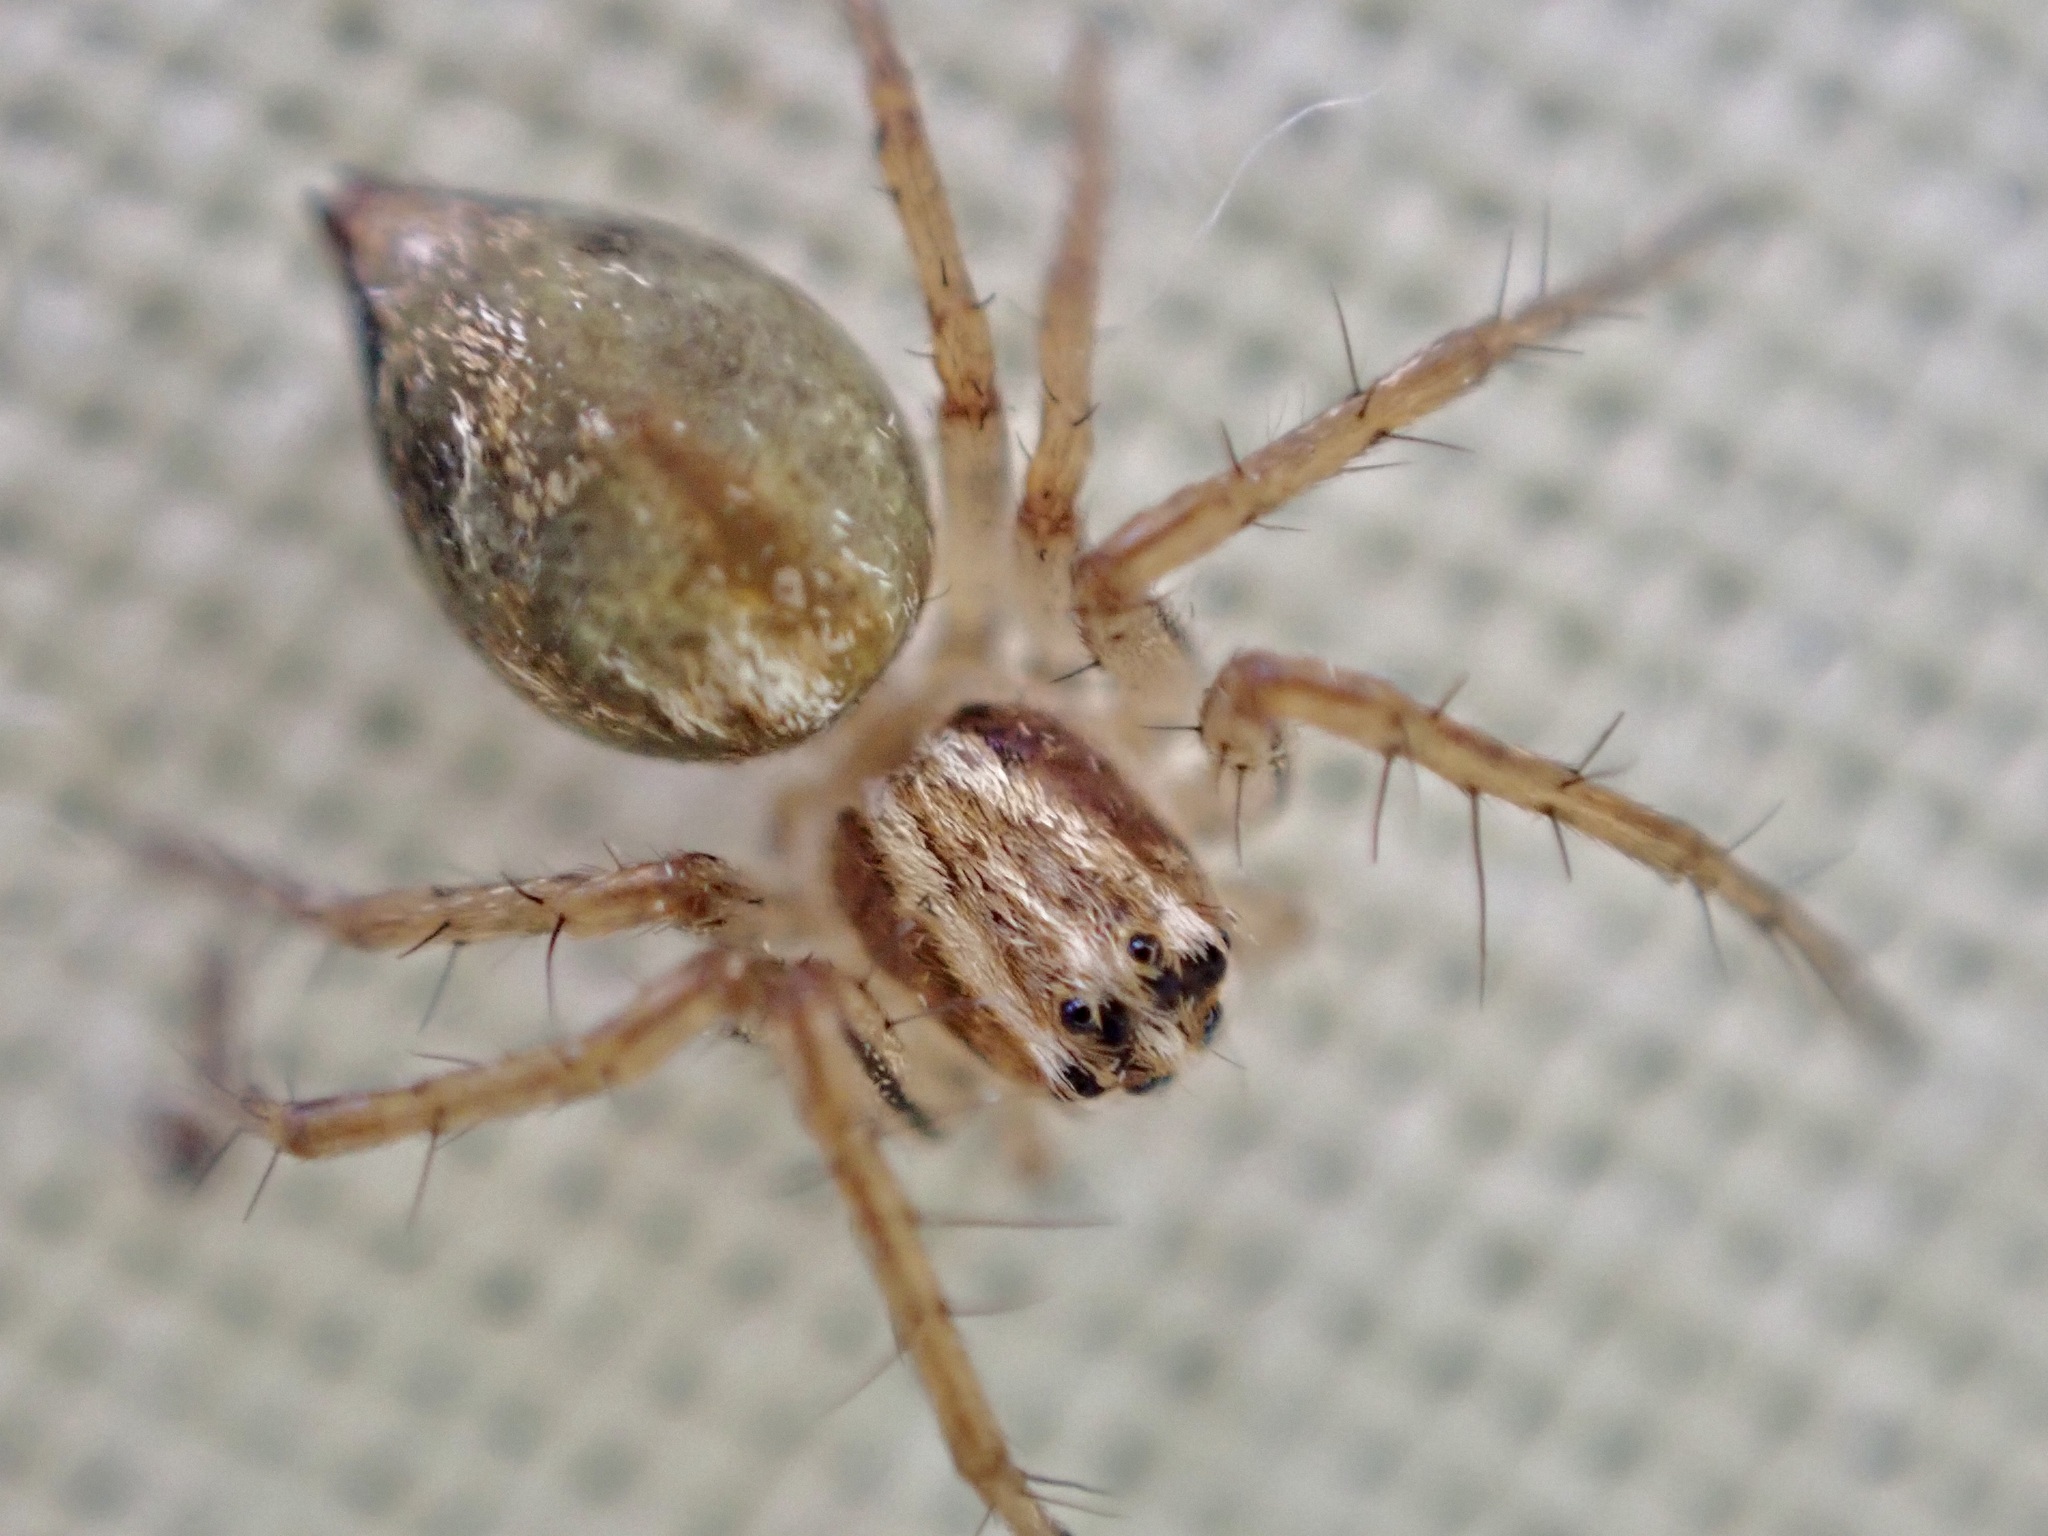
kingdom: Animalia
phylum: Arthropoda
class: Arachnida
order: Araneae
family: Oxyopidae
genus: Oxyopes
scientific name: Oxyopes gracilipes
